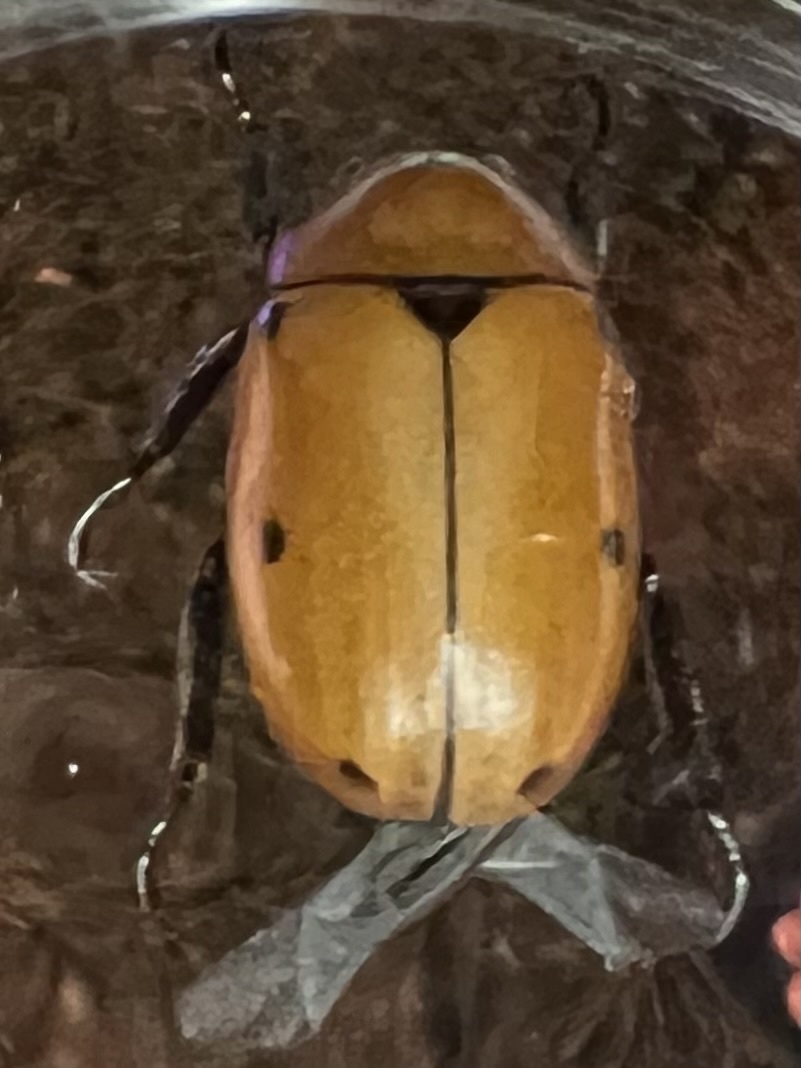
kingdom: Animalia
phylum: Arthropoda
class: Insecta
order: Coleoptera
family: Scarabaeidae
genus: Pelidnota
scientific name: Pelidnota punctata
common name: Grapevine beetle
